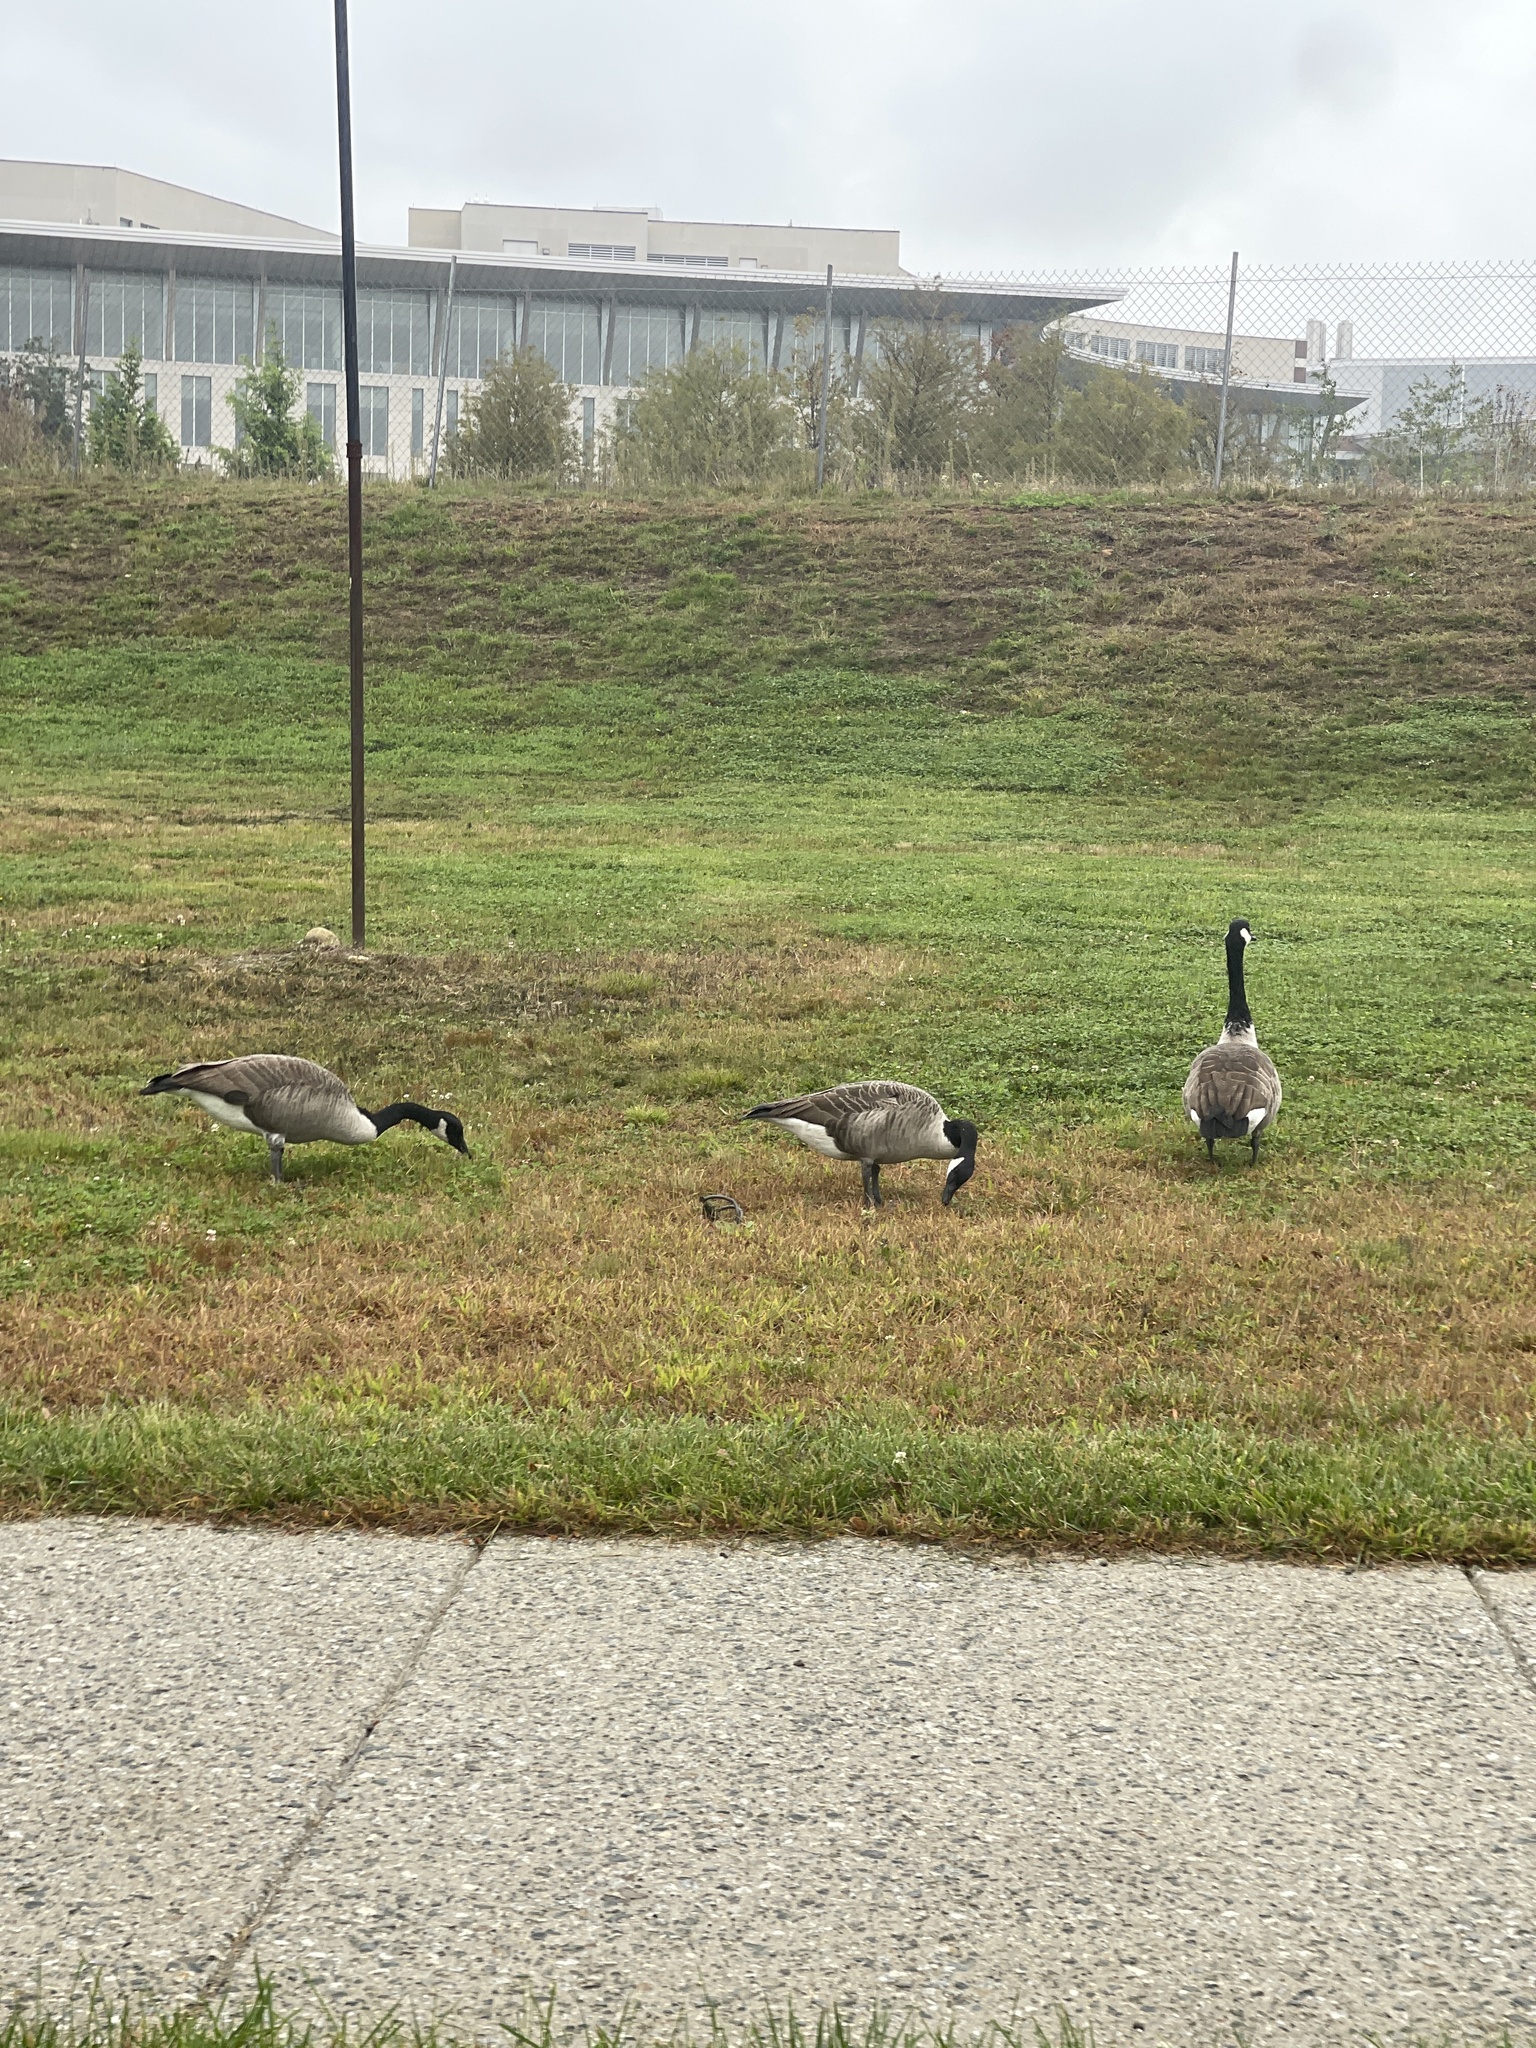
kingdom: Animalia
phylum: Chordata
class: Aves
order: Anseriformes
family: Anatidae
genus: Branta
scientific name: Branta canadensis
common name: Canada goose
